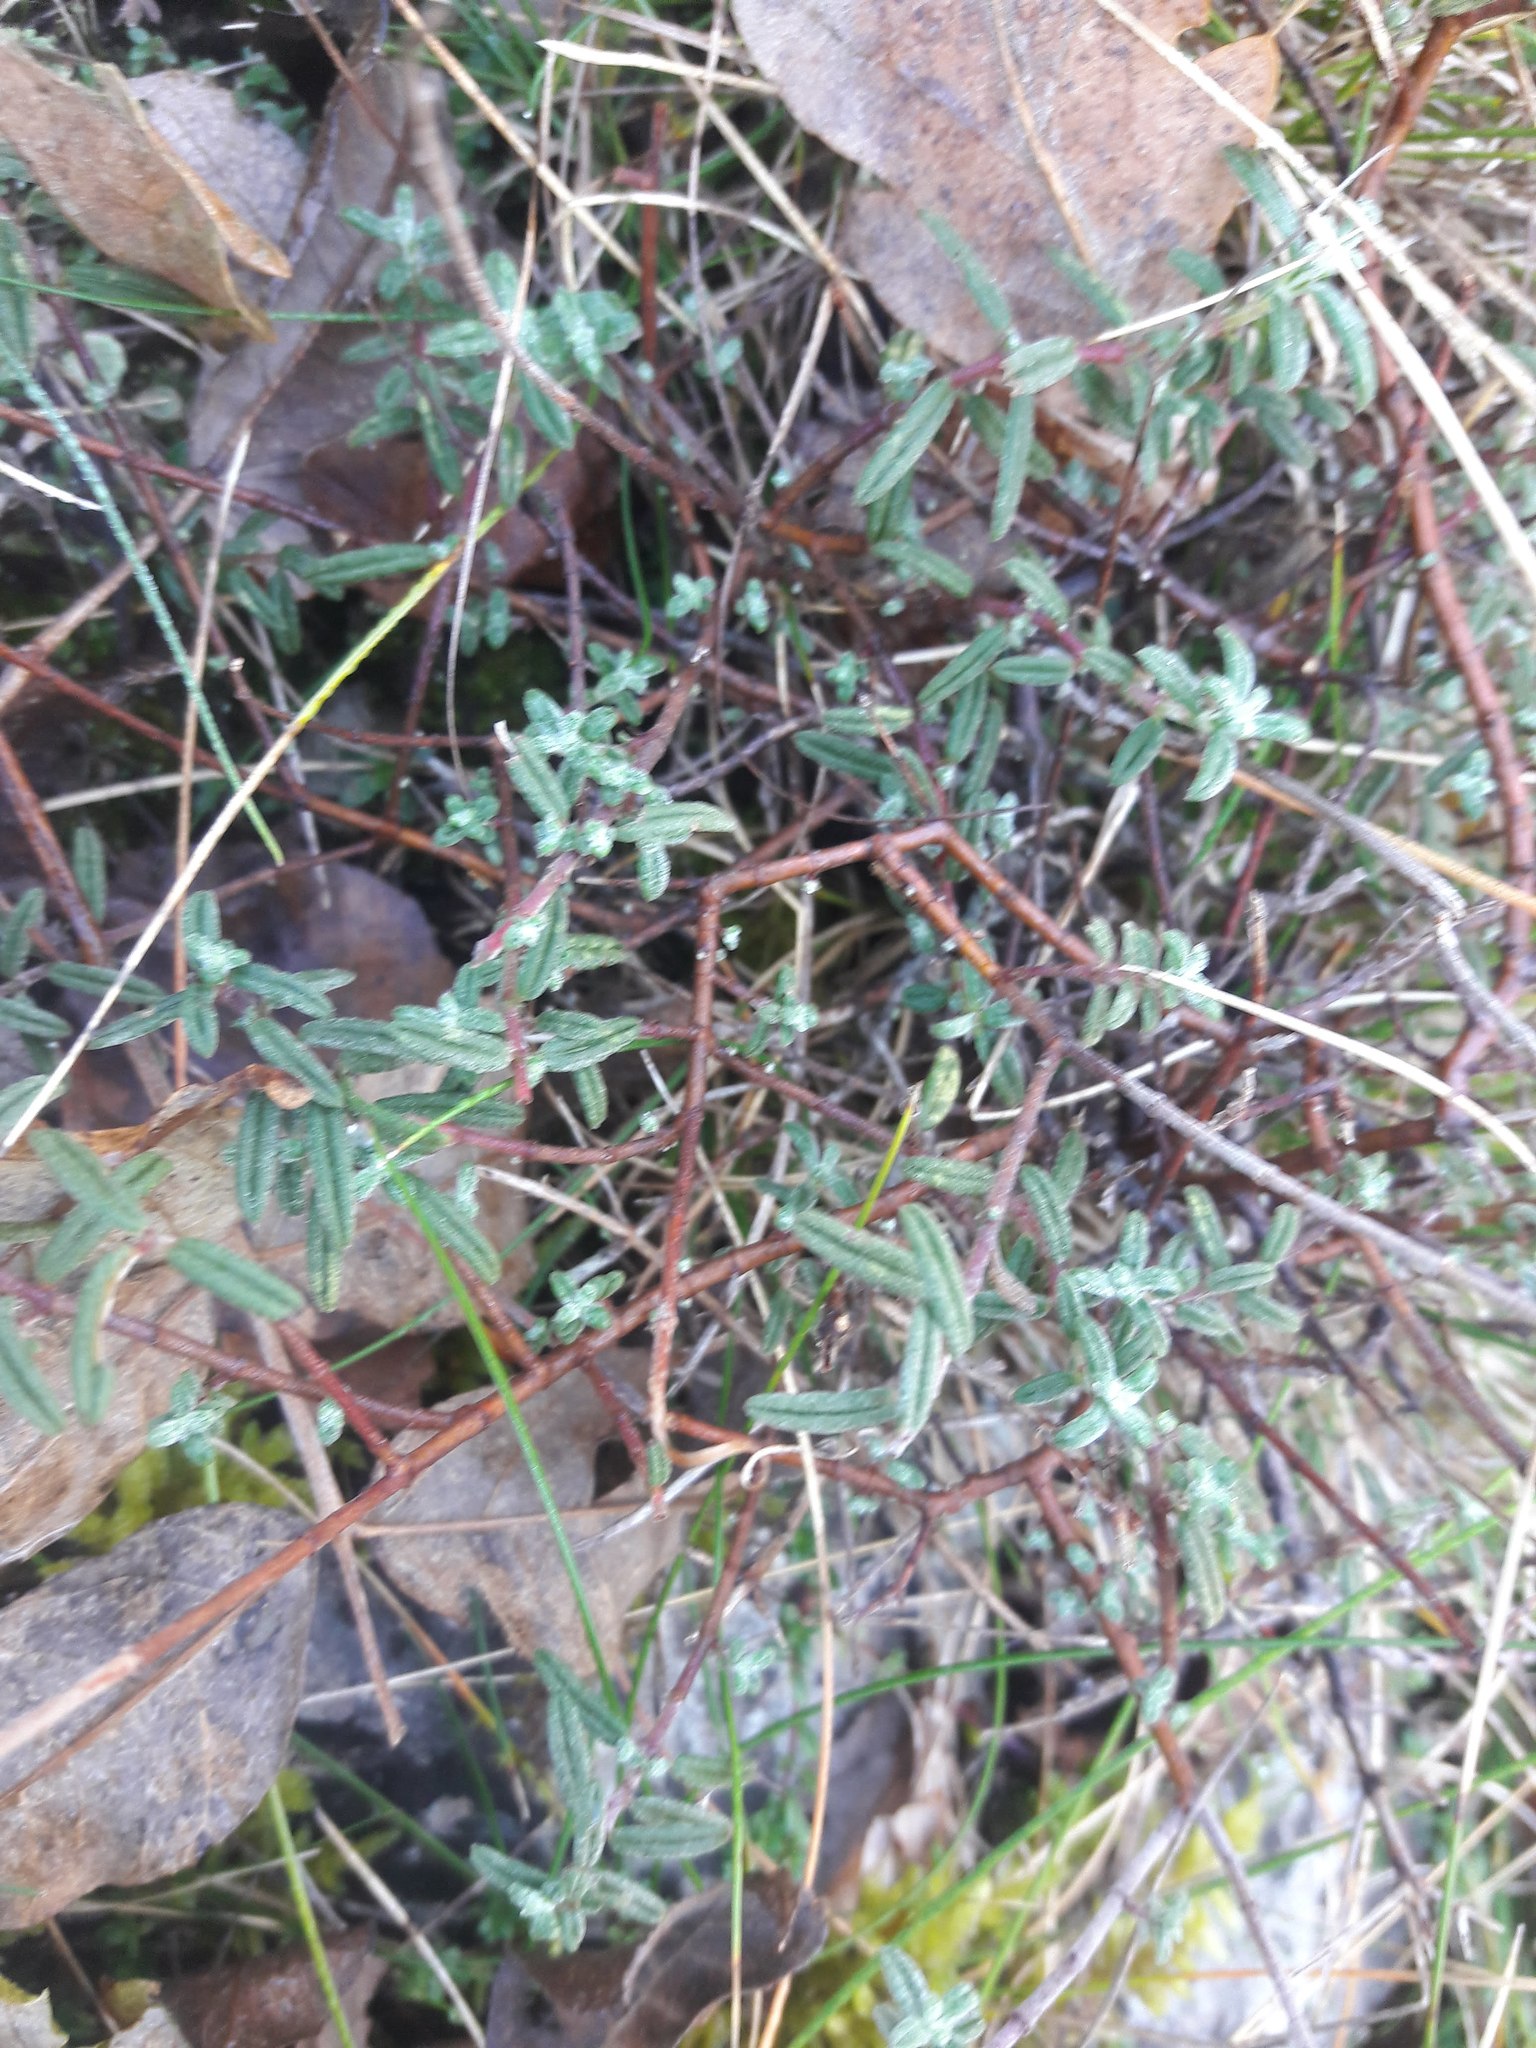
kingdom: Plantae
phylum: Tracheophyta
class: Magnoliopsida
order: Malvales
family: Cistaceae
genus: Helianthemum
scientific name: Helianthemum apenninum
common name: White rock-rose
